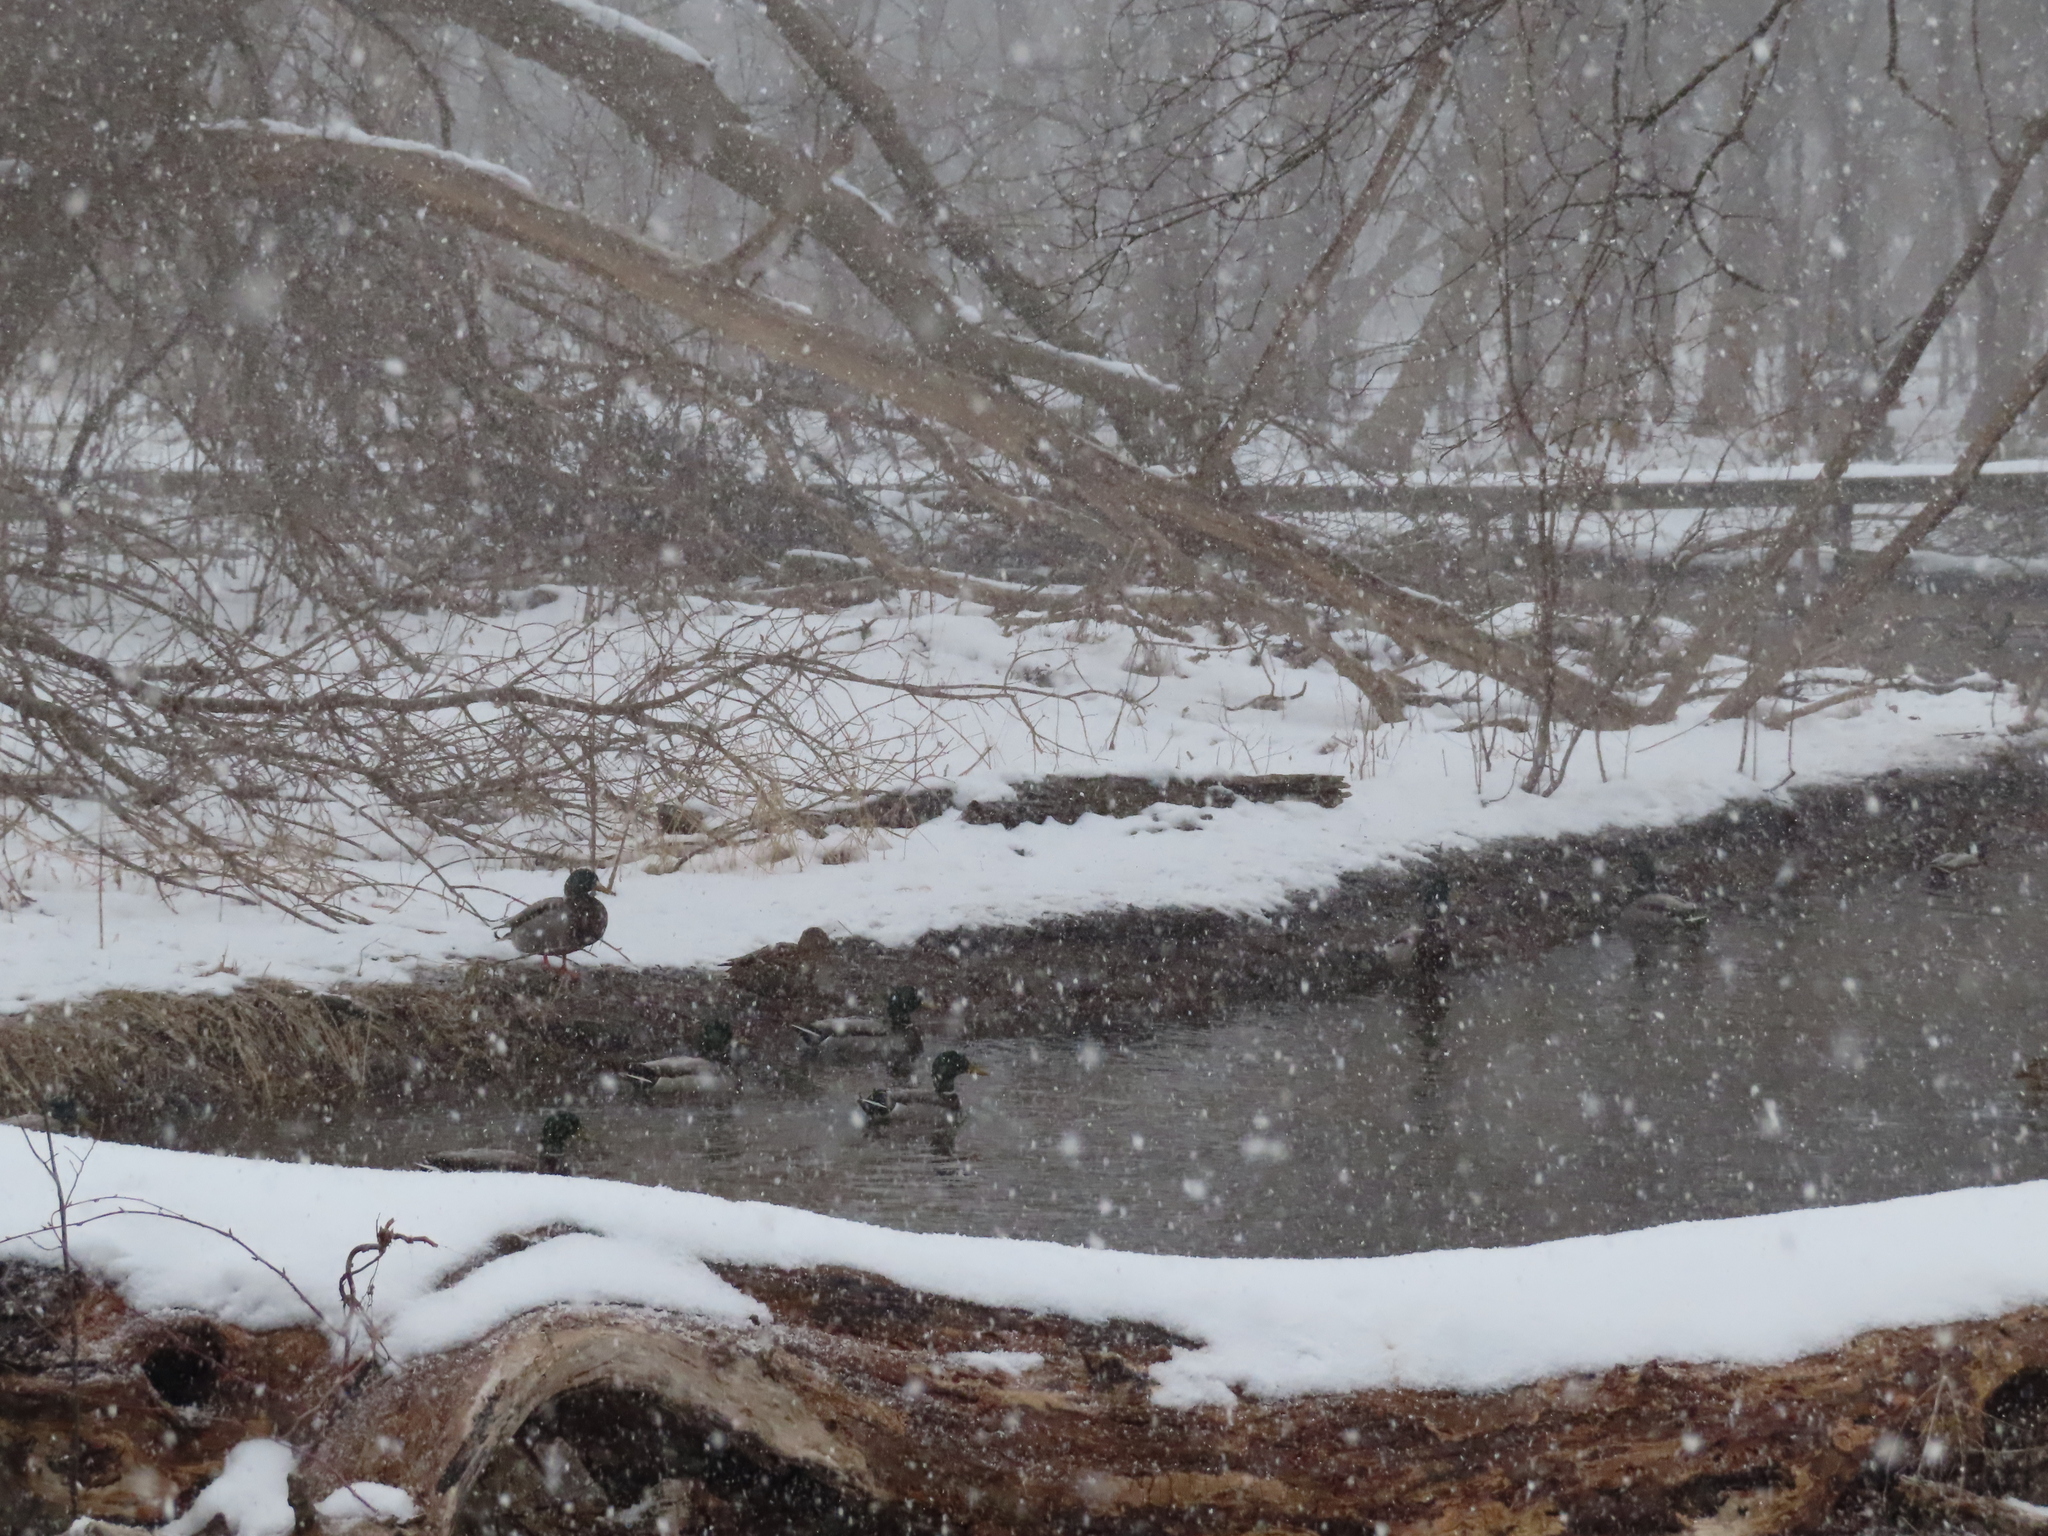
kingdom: Animalia
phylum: Chordata
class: Aves
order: Anseriformes
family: Anatidae
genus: Anas
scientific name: Anas platyrhynchos
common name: Mallard
